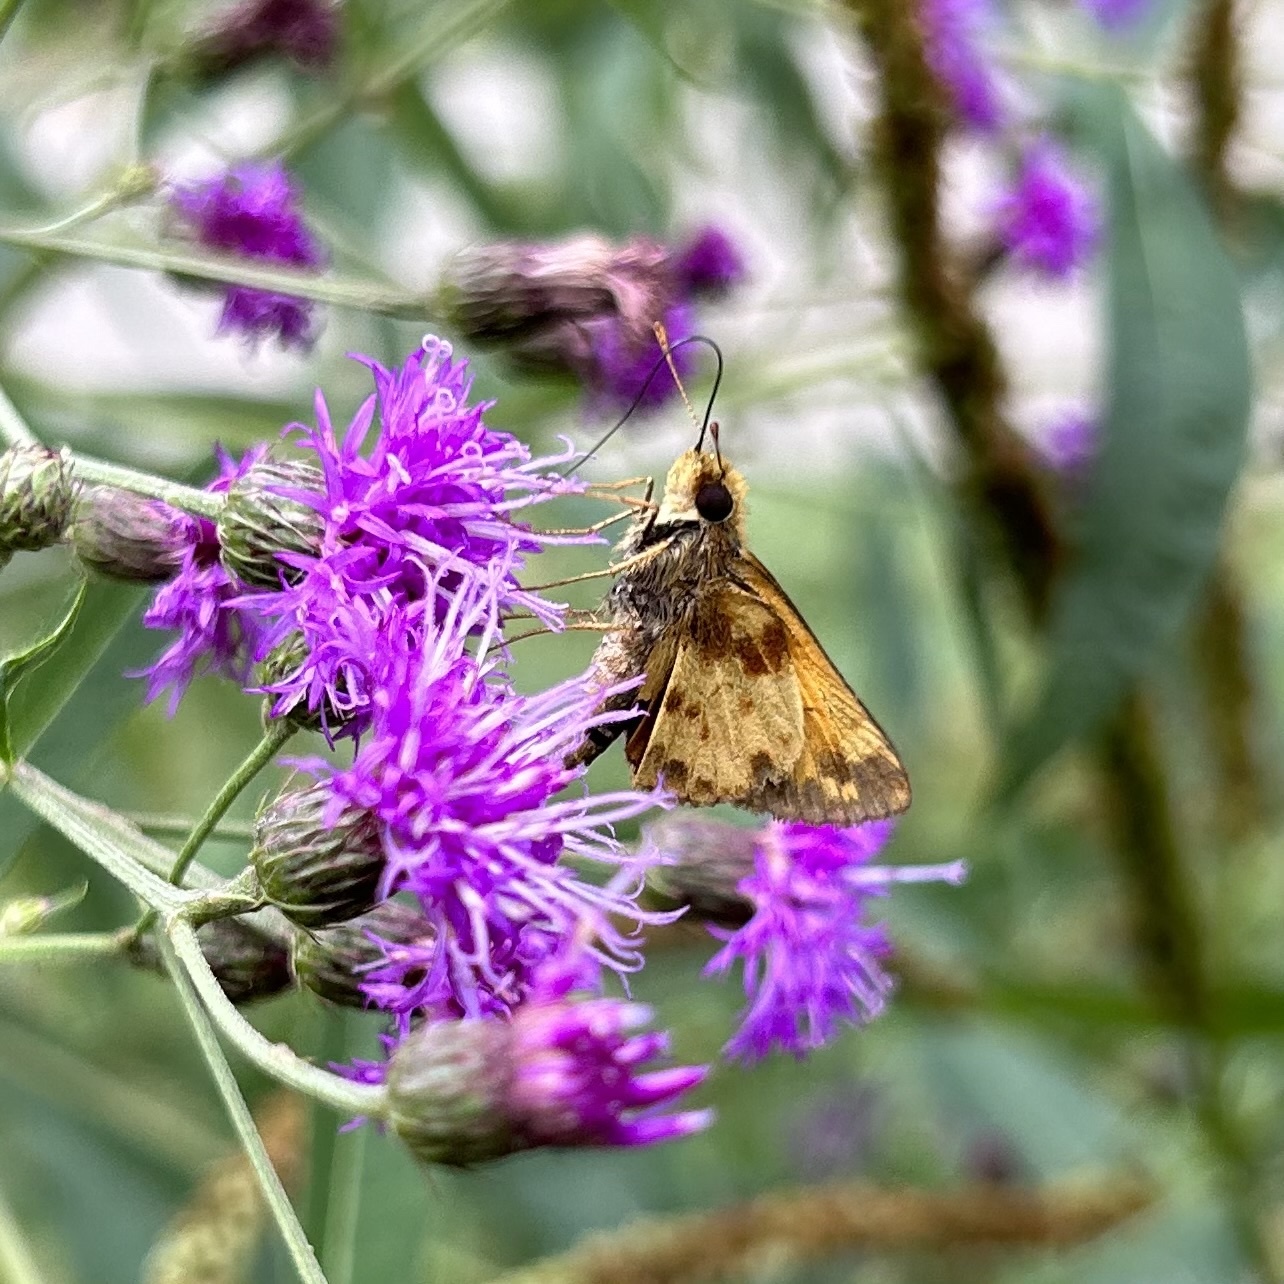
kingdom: Animalia
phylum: Arthropoda
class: Insecta
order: Lepidoptera
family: Hesperiidae
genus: Lon
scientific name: Lon zabulon
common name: Zabulon skipper
